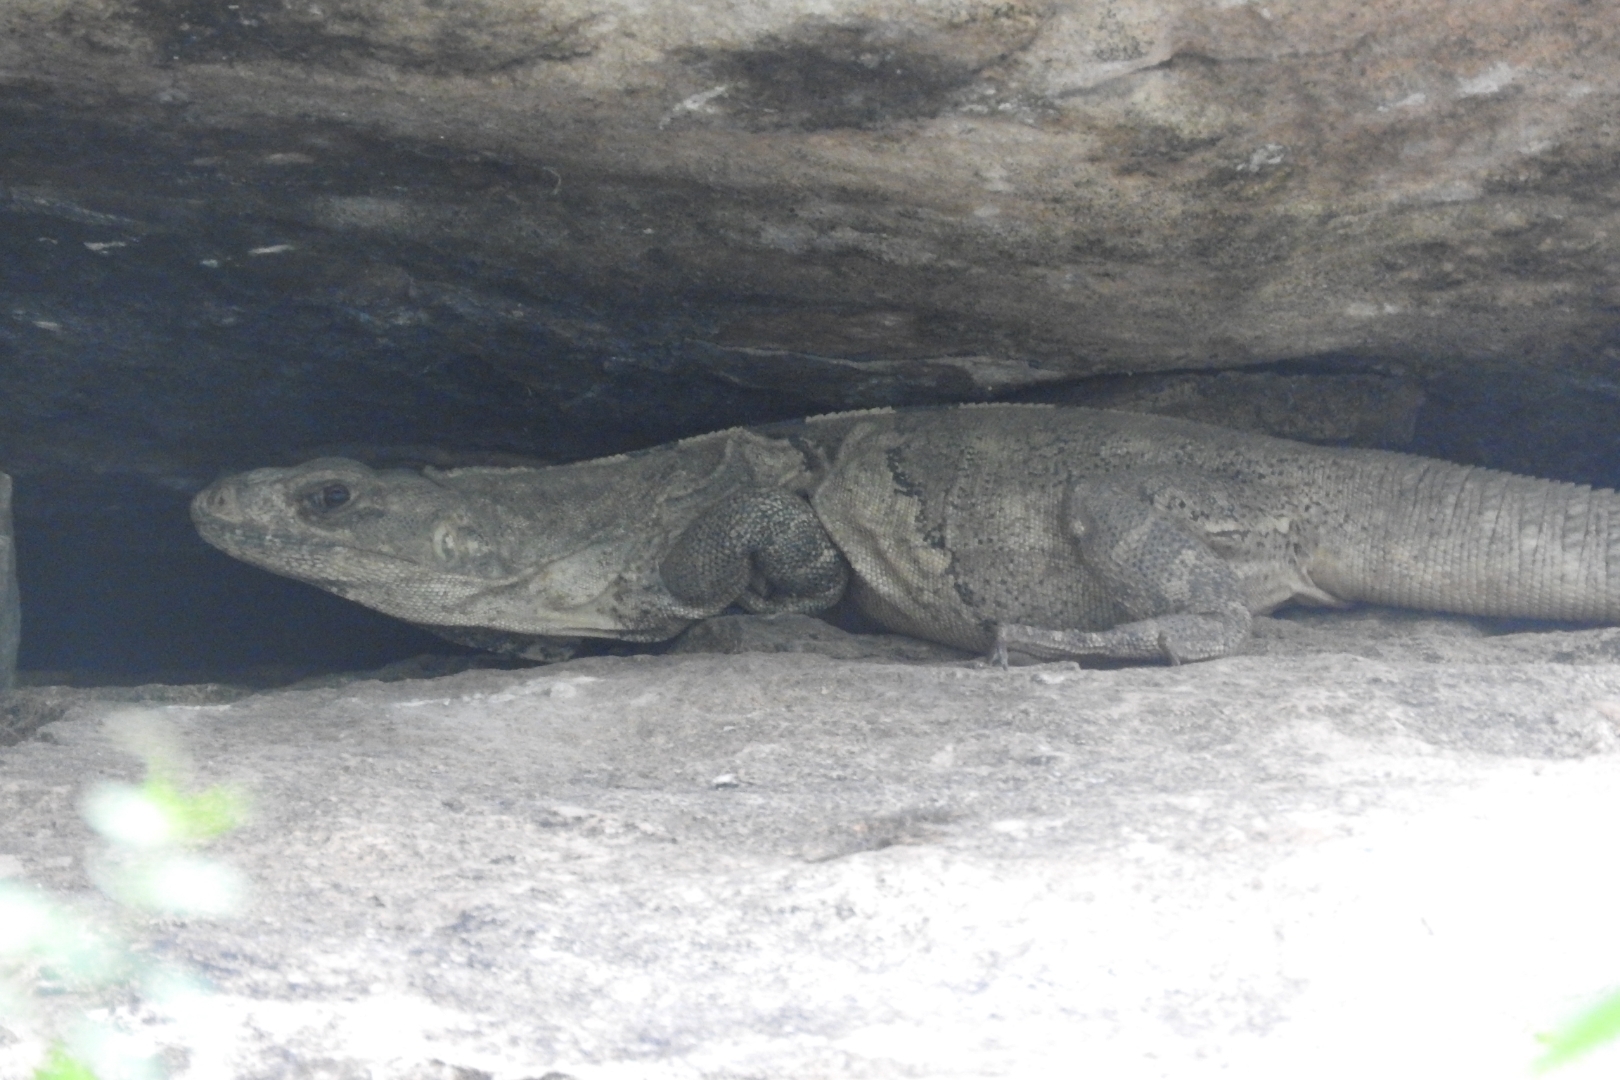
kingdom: Animalia
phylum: Chordata
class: Squamata
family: Iguanidae
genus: Ctenosaura
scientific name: Ctenosaura similis
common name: Black spiny-tailed iguana
